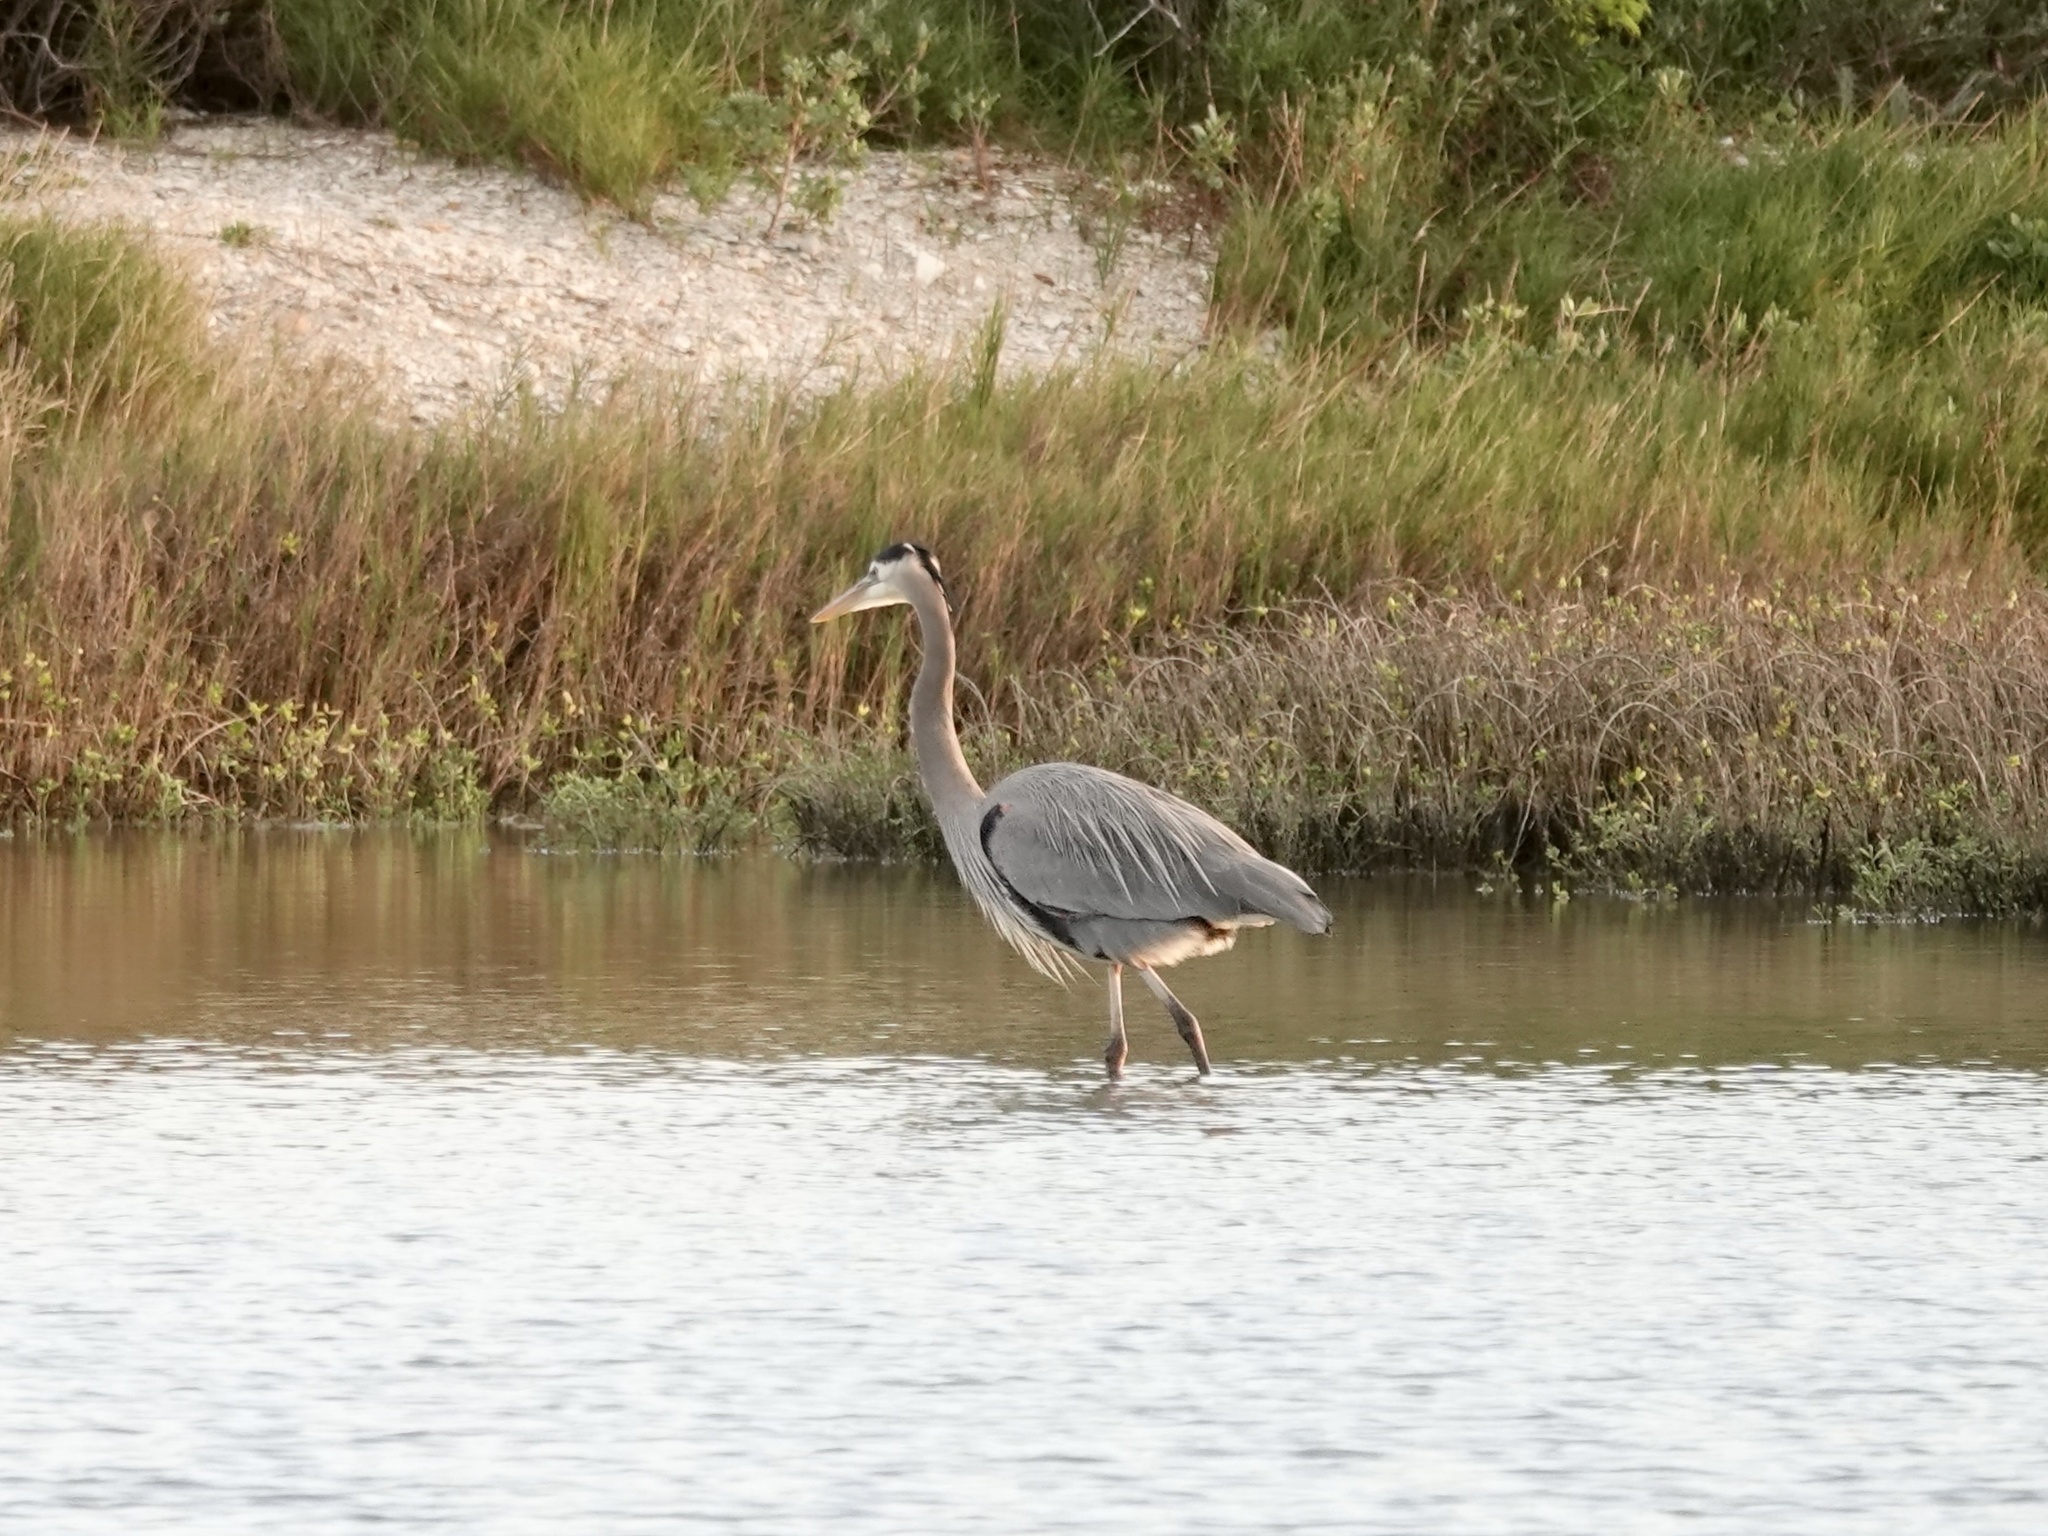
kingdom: Animalia
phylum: Chordata
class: Aves
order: Pelecaniformes
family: Ardeidae
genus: Ardea
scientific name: Ardea herodias
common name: Great blue heron
